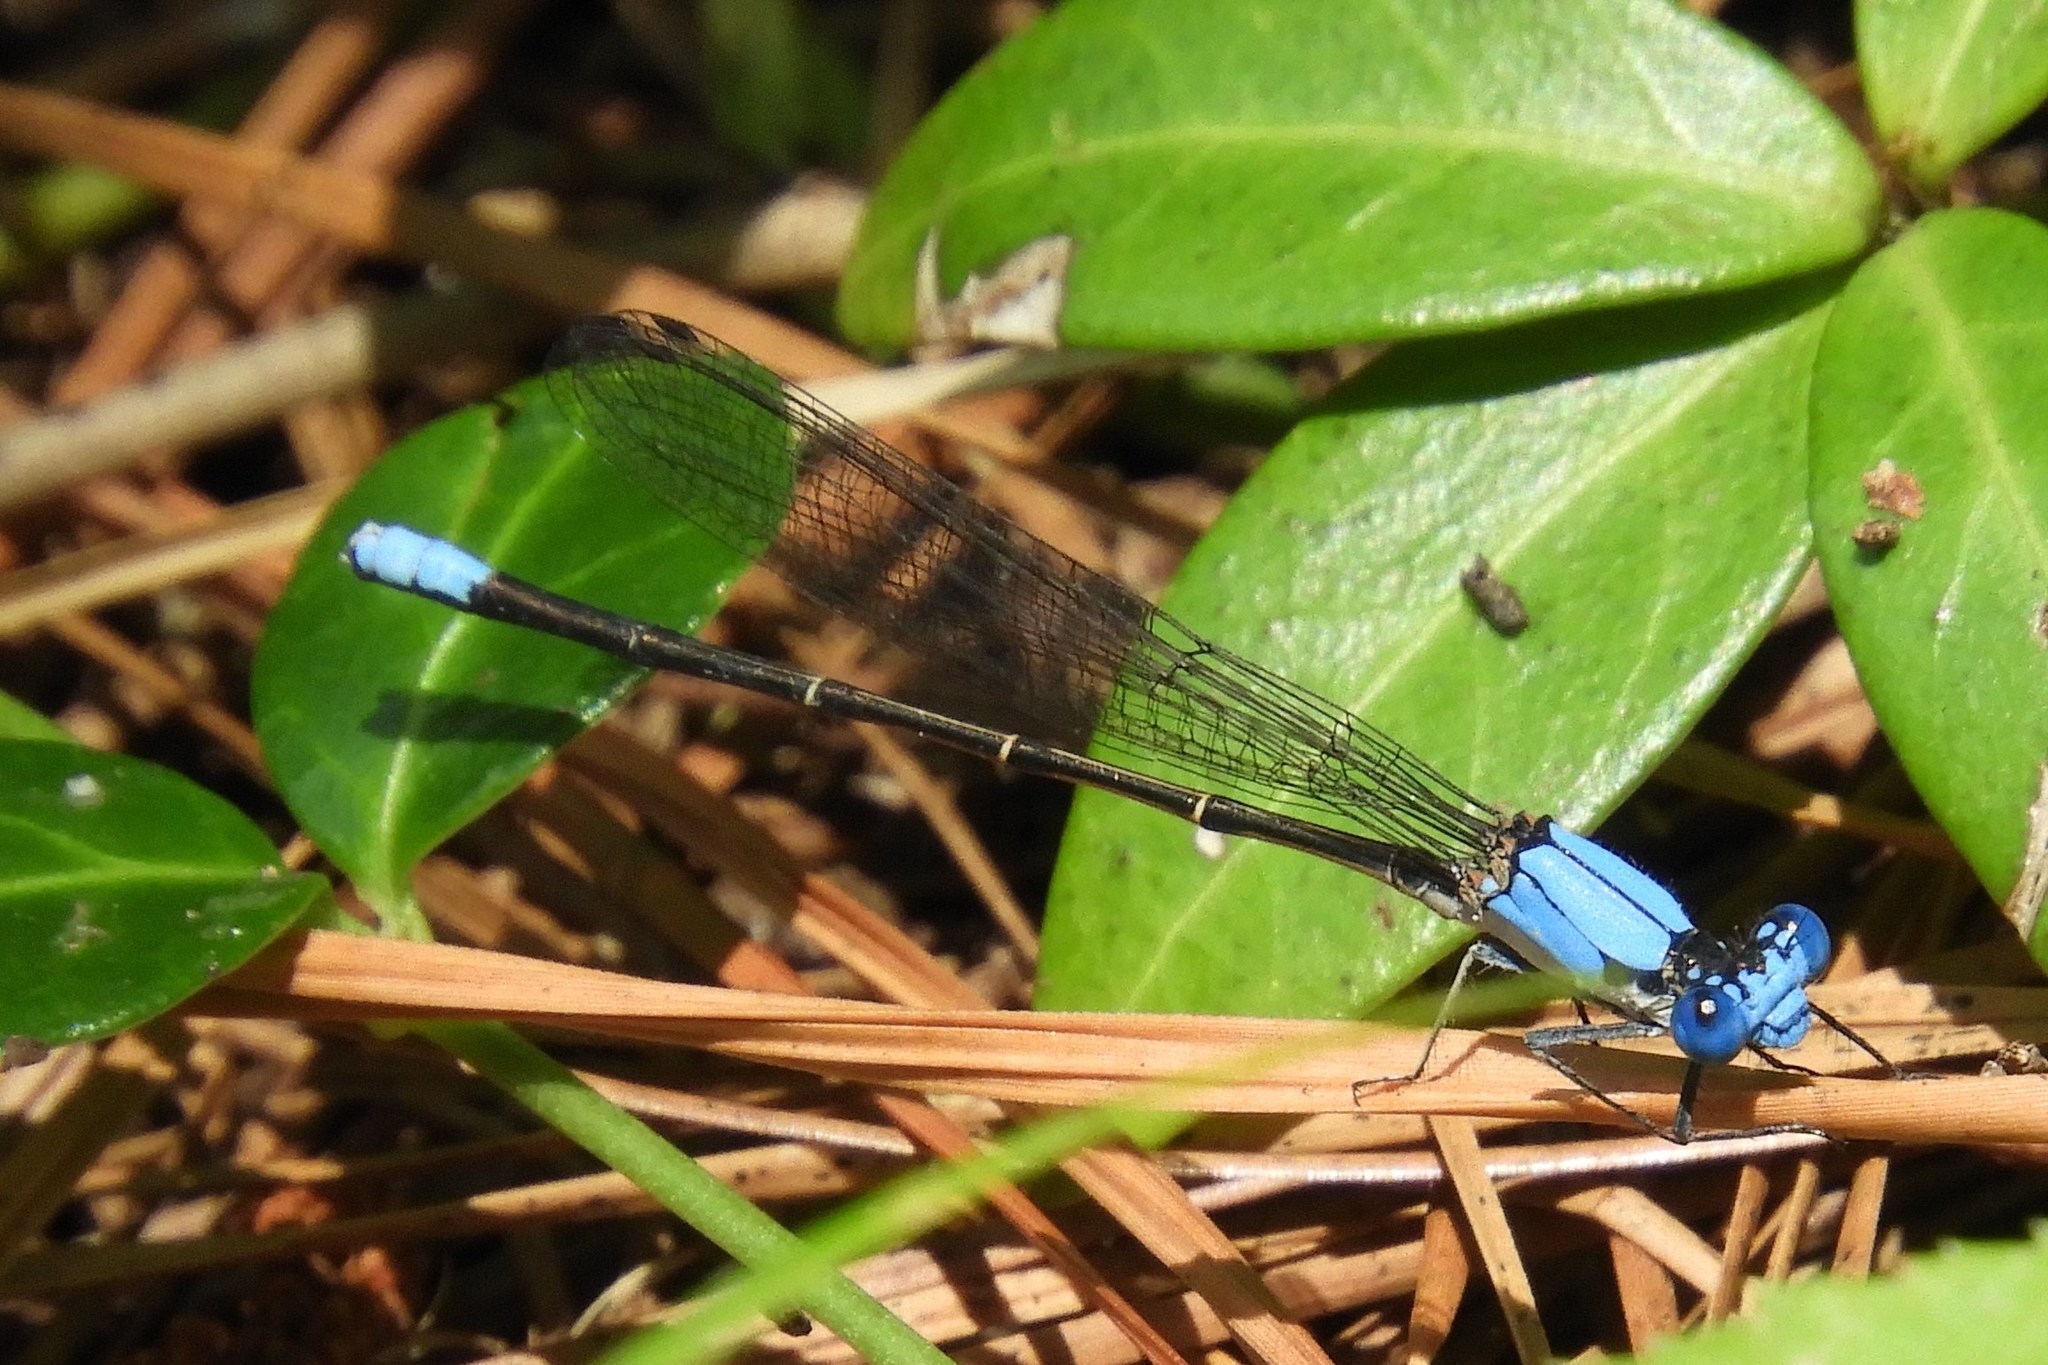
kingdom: Animalia
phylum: Arthropoda
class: Insecta
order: Odonata
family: Coenagrionidae
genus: Argia
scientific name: Argia apicalis
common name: Blue-fronted dancer
